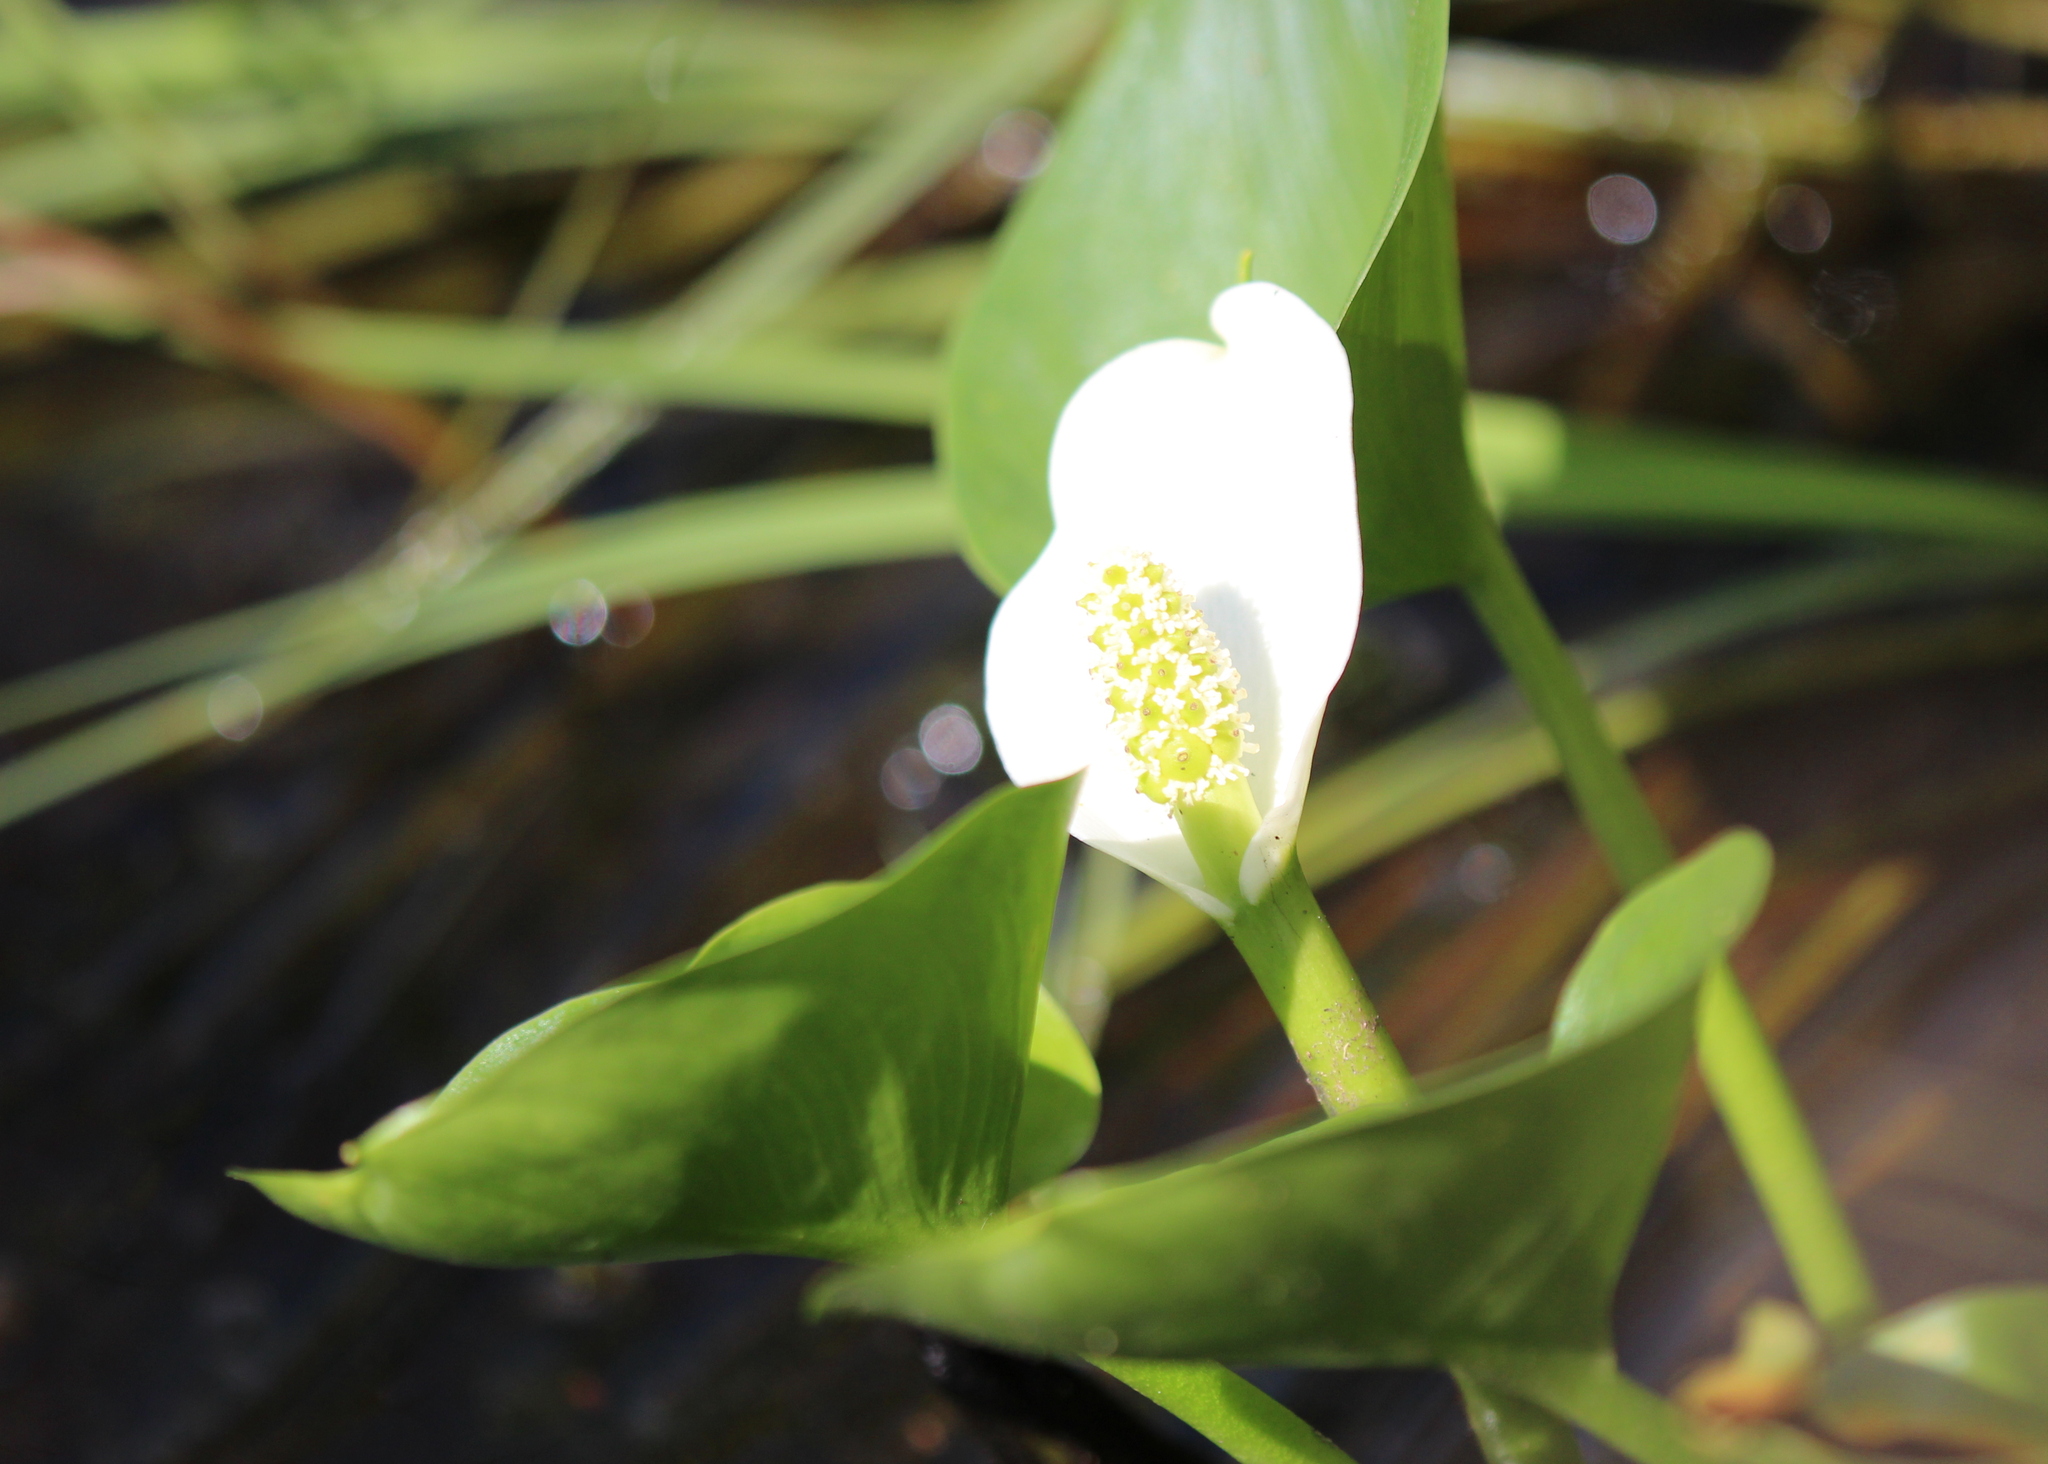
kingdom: Plantae
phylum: Tracheophyta
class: Liliopsida
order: Alismatales
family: Araceae
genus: Calla
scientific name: Calla palustris
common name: Bog arum
